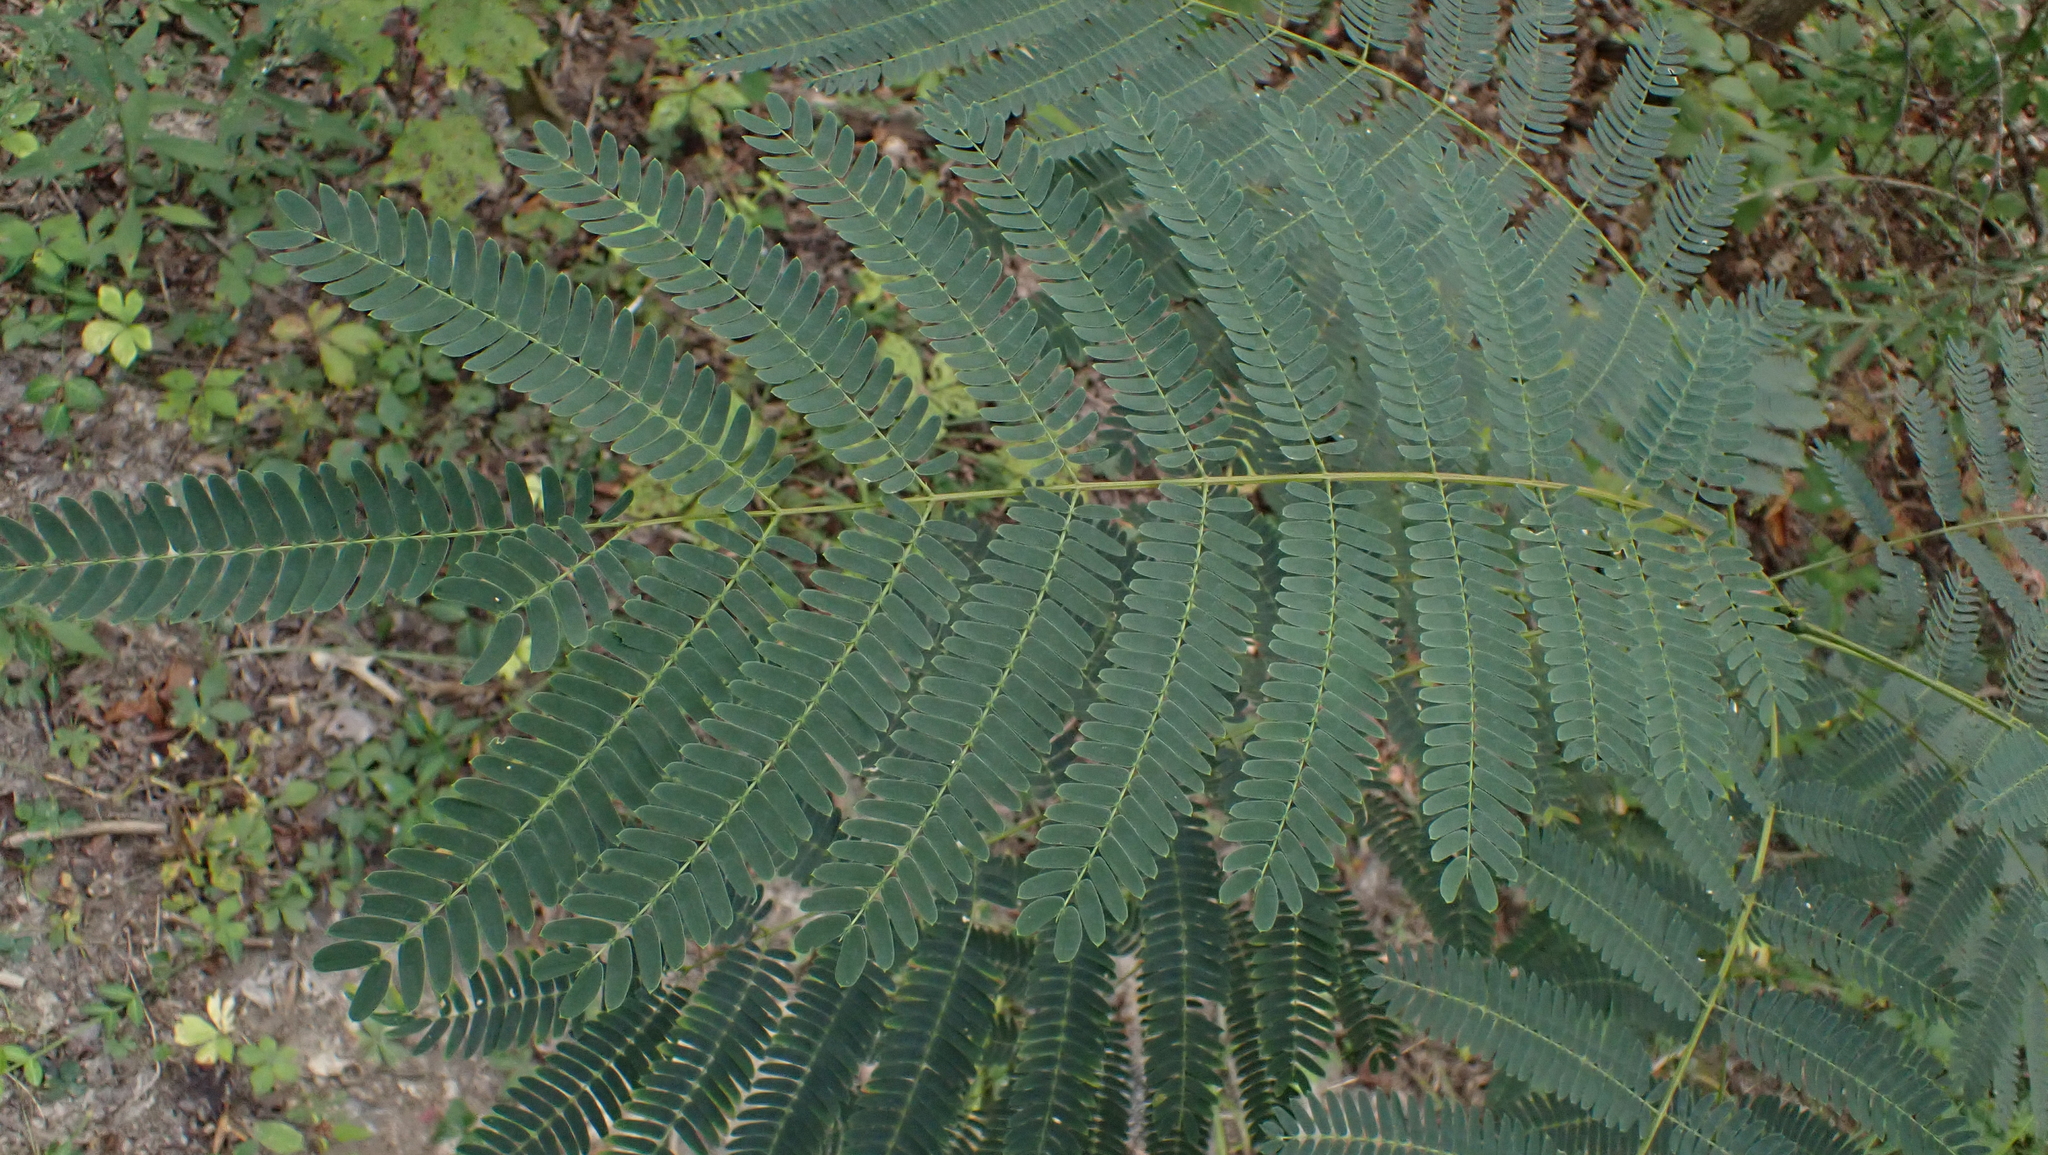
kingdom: Plantae
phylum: Tracheophyta
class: Magnoliopsida
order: Fabales
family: Fabaceae
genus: Albizia
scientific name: Albizia julibrissin
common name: Silktree
